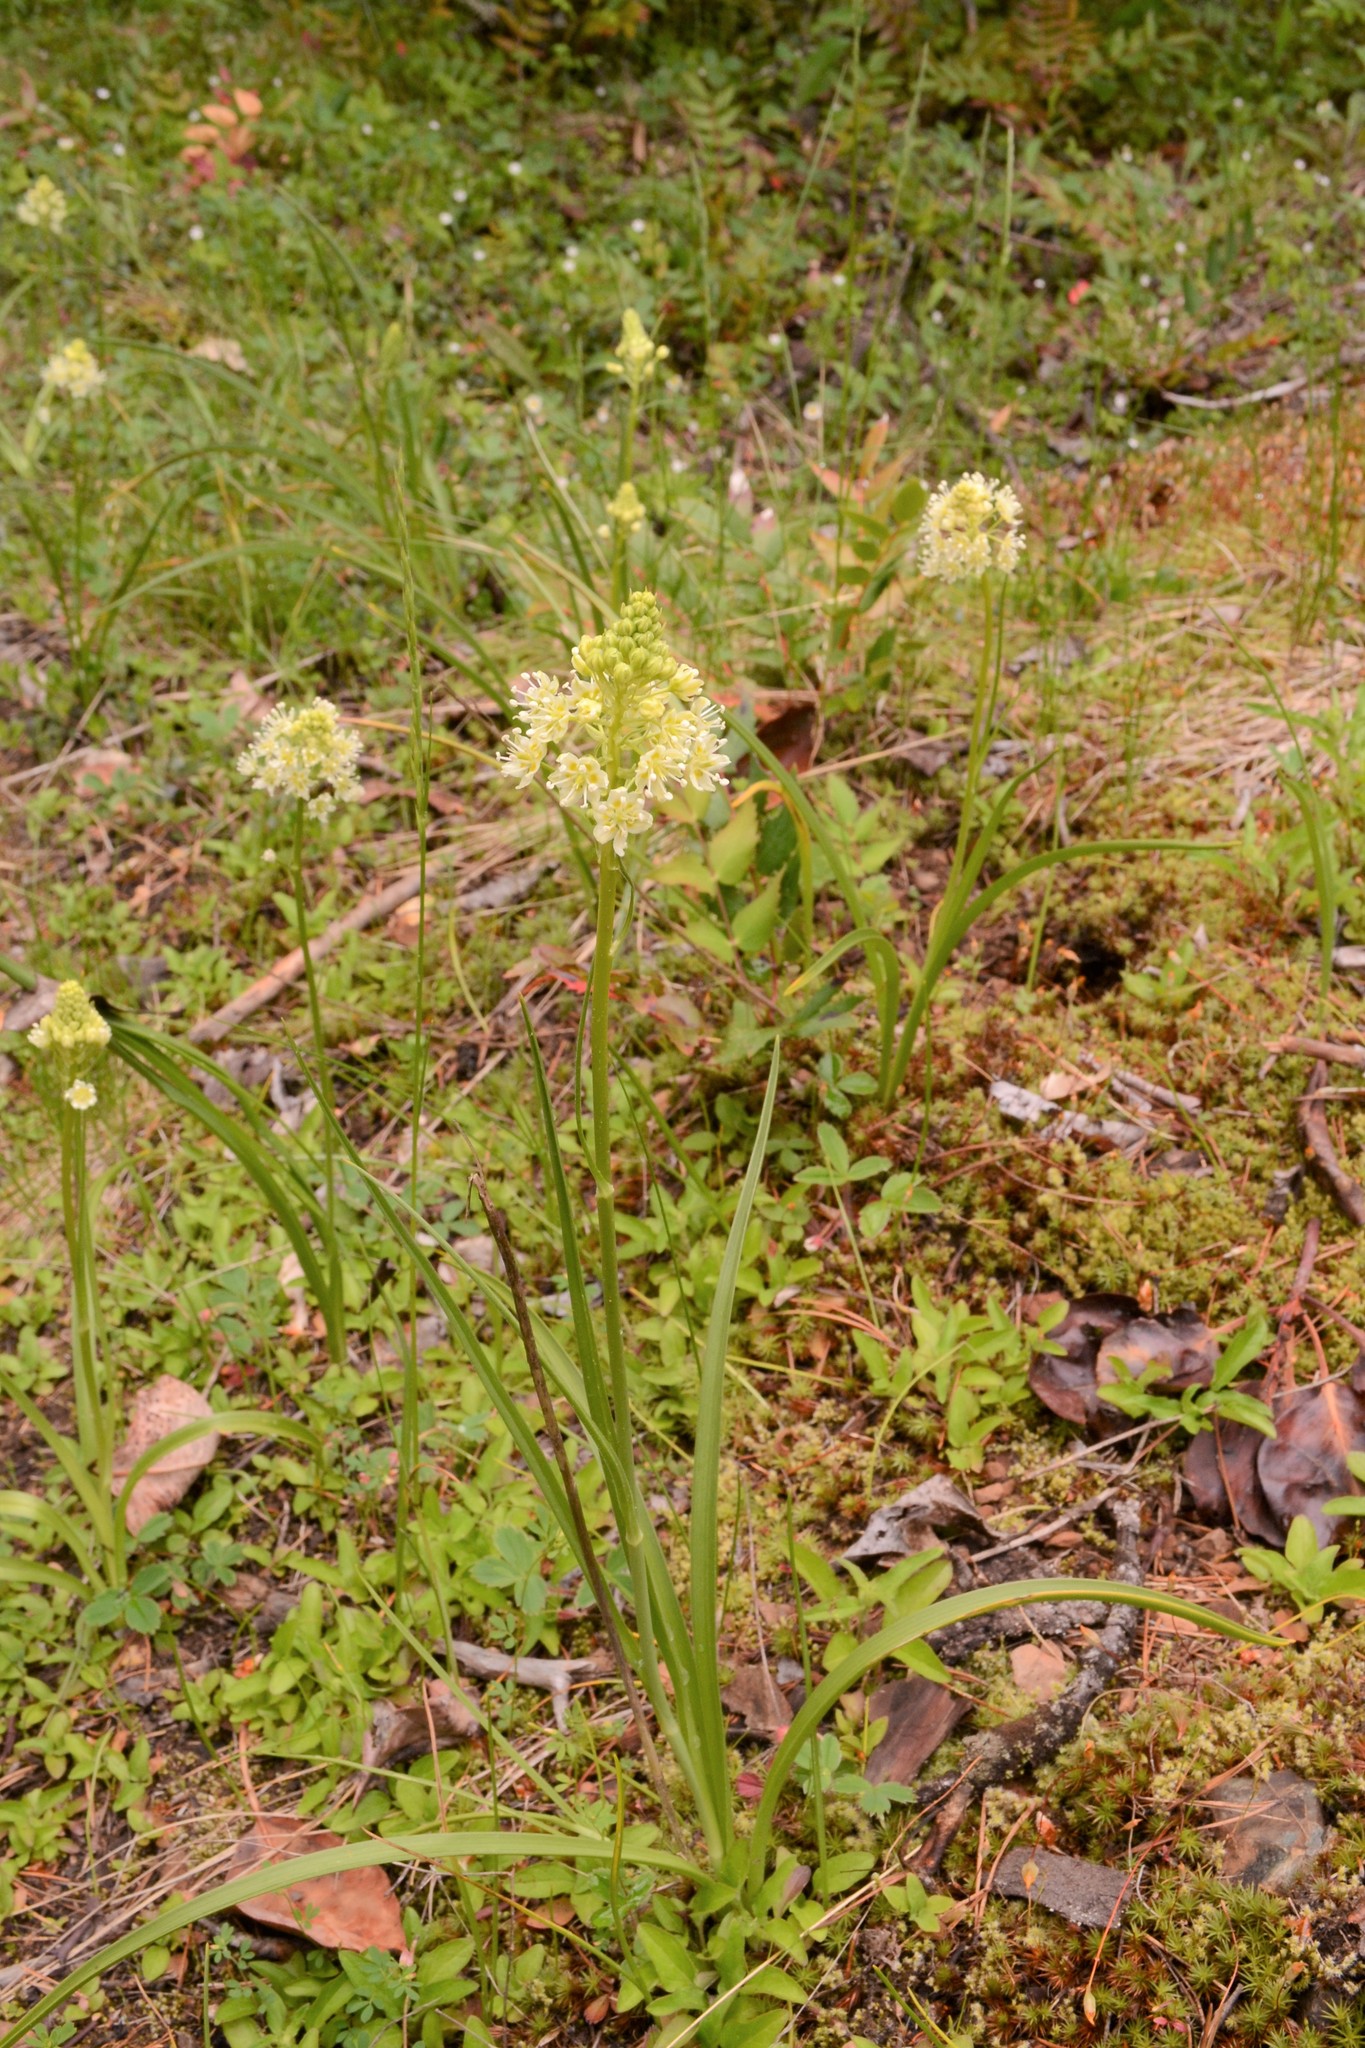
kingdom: Plantae
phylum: Tracheophyta
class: Liliopsida
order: Liliales
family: Melanthiaceae
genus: Toxicoscordion
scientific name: Toxicoscordion venenosum
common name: Meadow death camas
